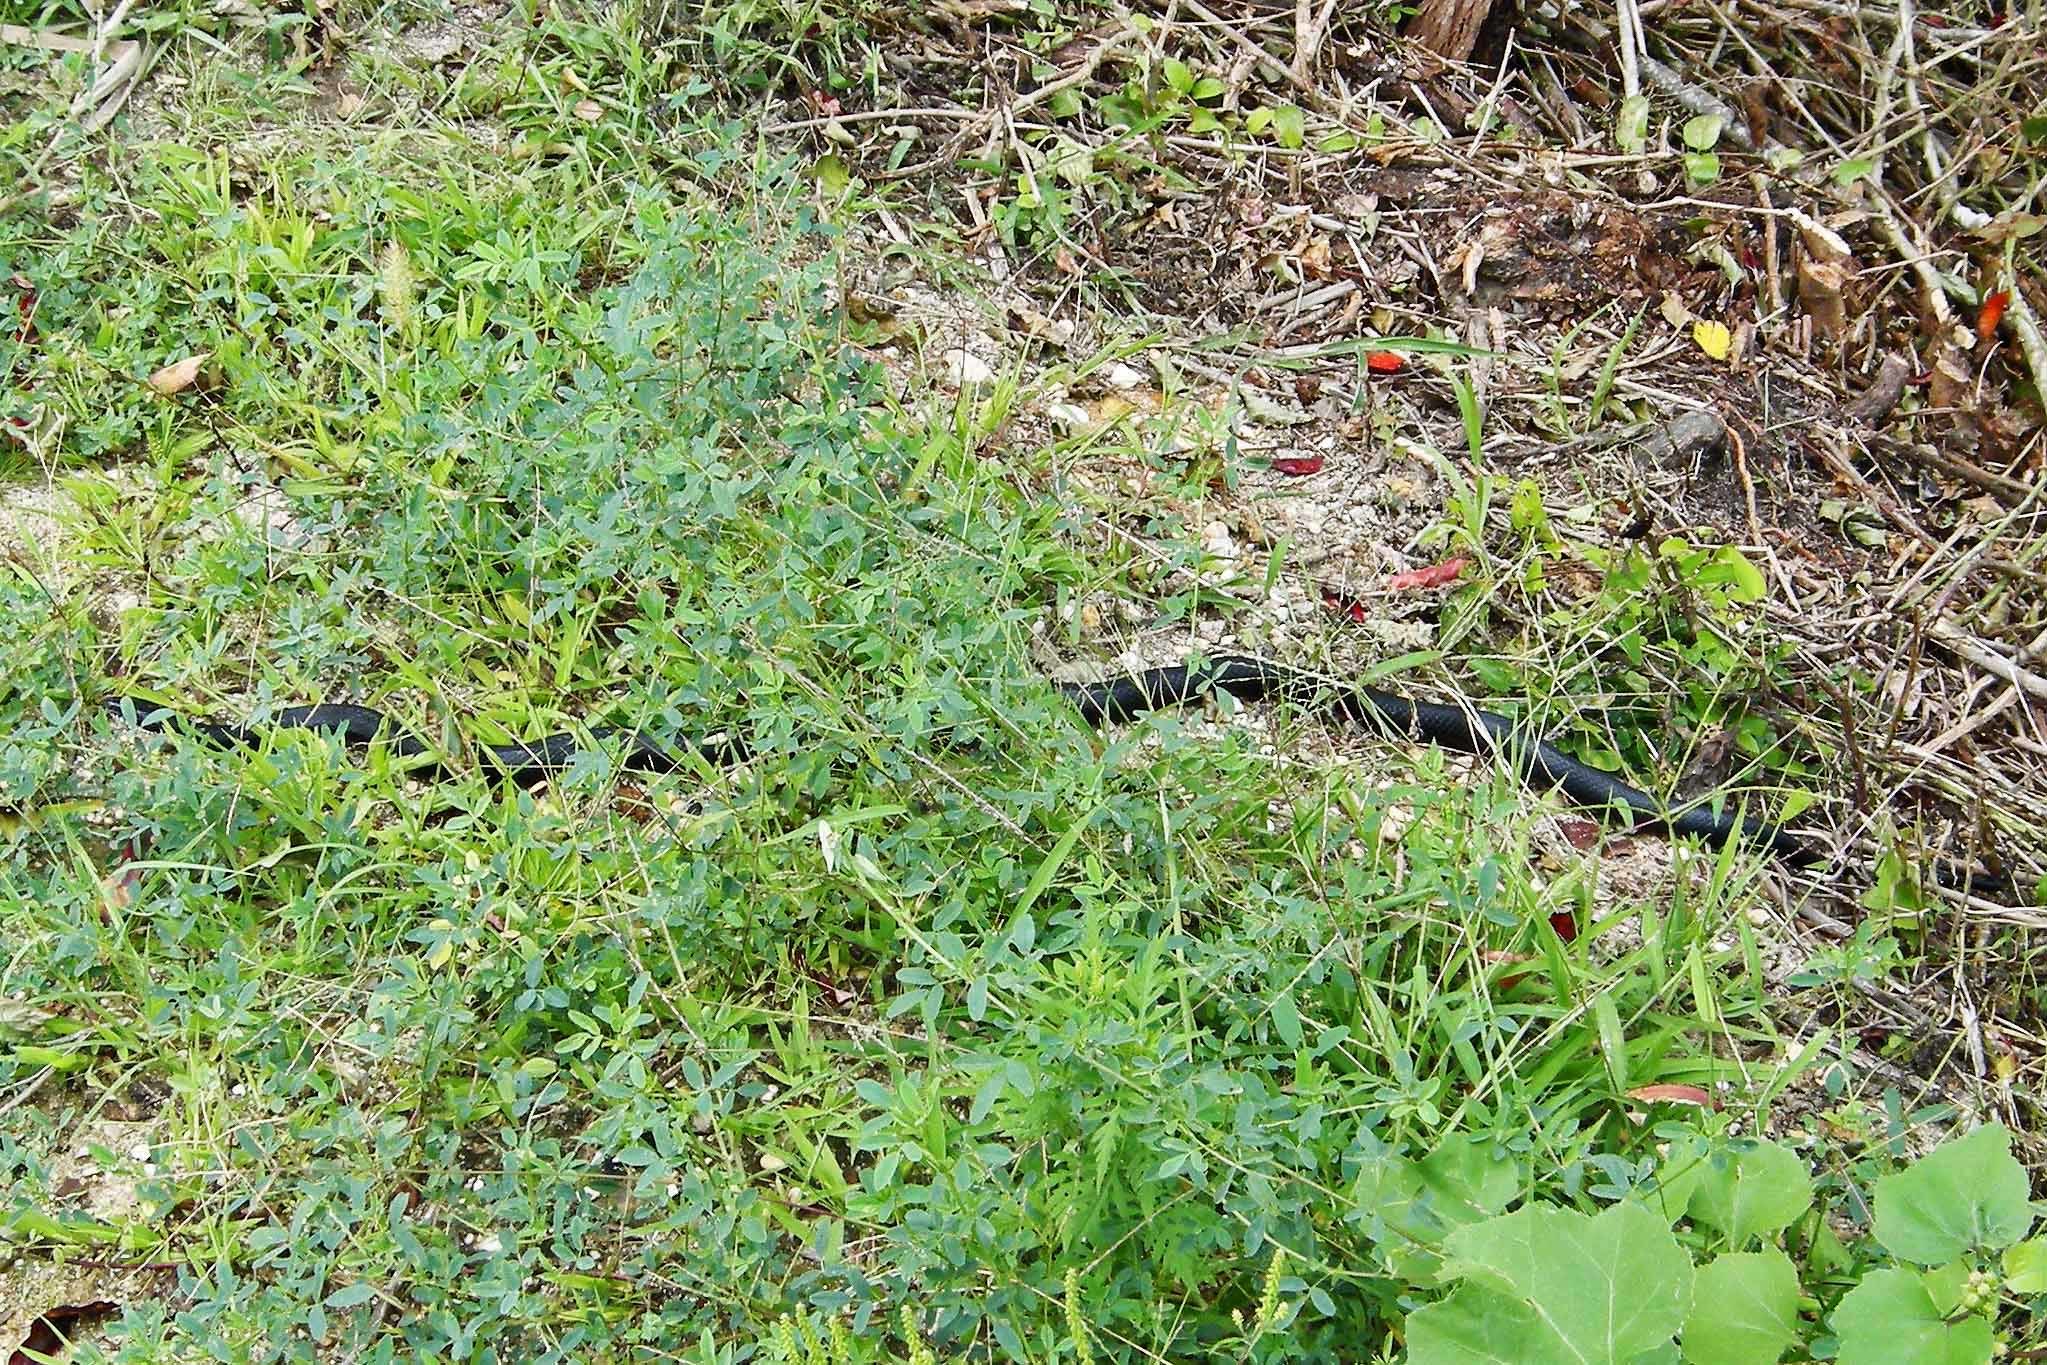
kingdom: Animalia
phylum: Chordata
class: Squamata
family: Colubridae
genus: Pantherophis
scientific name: Pantherophis alleghaniensis
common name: Eastern rat snake
